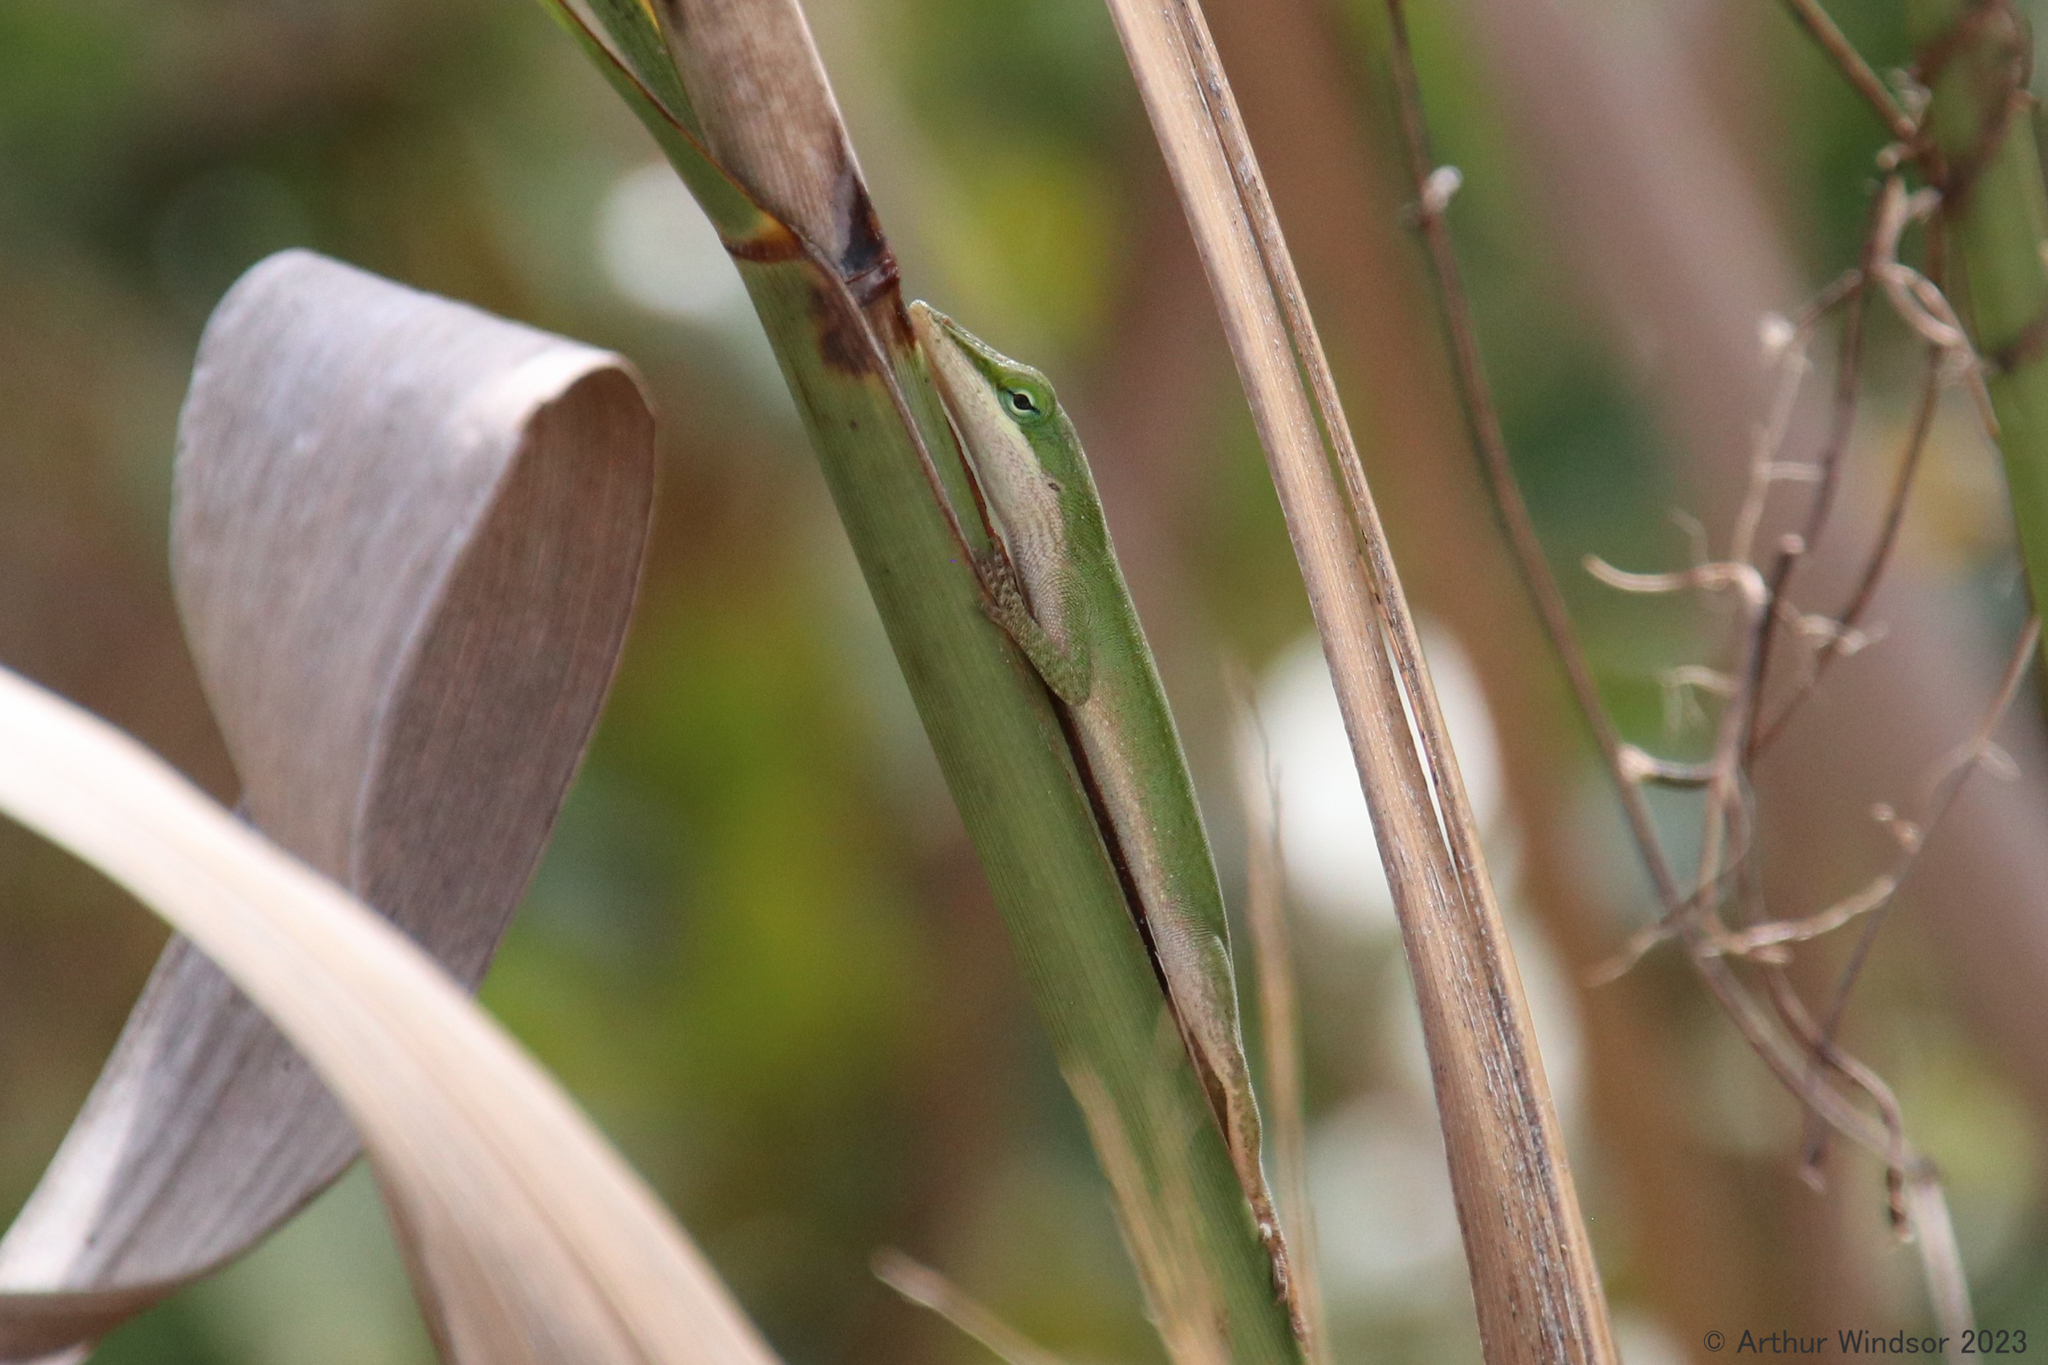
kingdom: Animalia
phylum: Chordata
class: Squamata
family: Dactyloidae
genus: Anolis
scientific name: Anolis carolinensis
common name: Green anole
